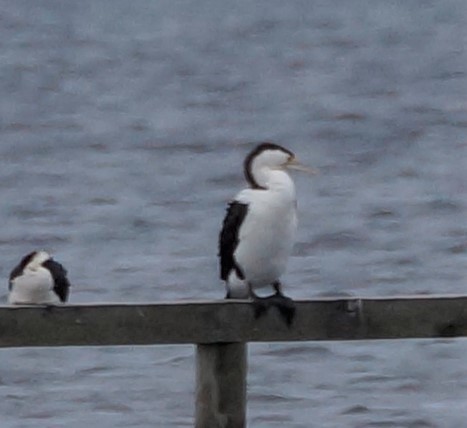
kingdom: Animalia
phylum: Chordata
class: Aves
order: Suliformes
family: Phalacrocoracidae
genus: Phalacrocorax
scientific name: Phalacrocorax varius
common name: Pied cormorant
